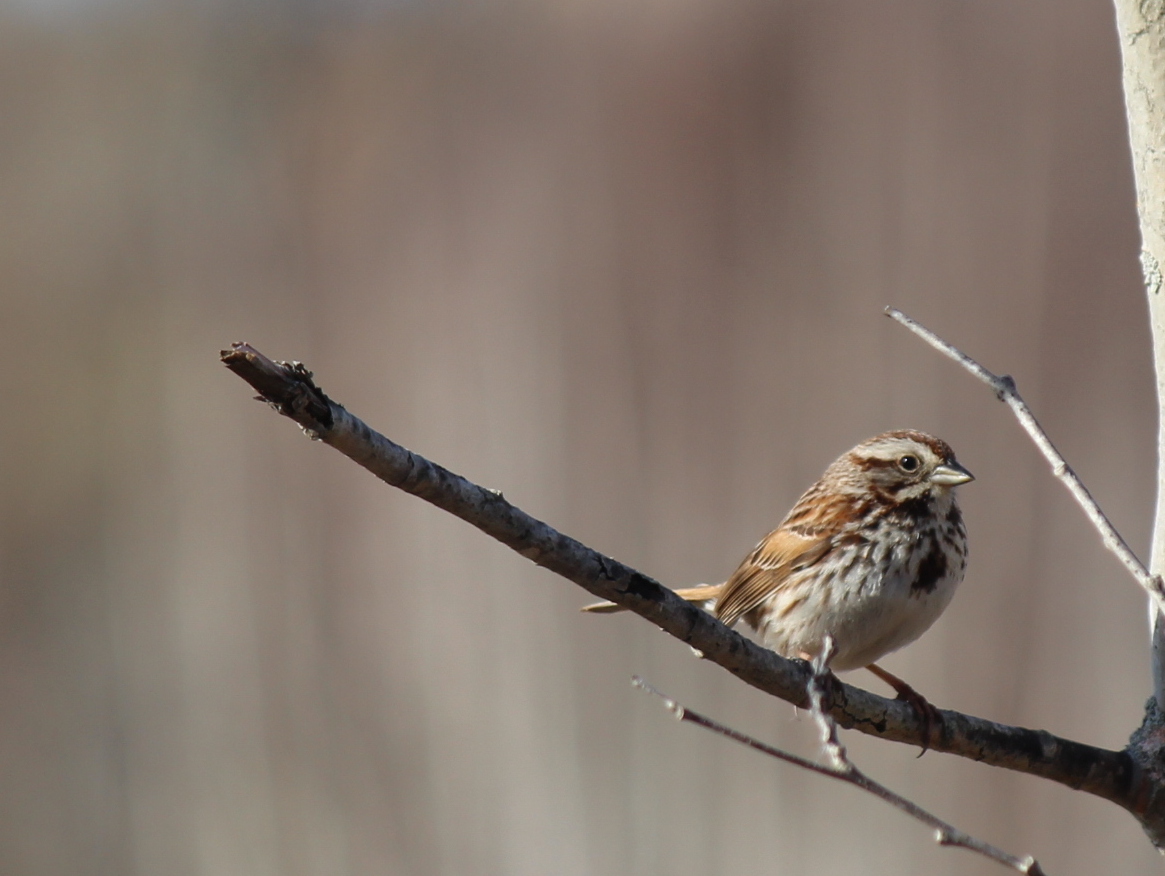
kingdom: Animalia
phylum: Chordata
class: Aves
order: Passeriformes
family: Passerellidae
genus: Melospiza
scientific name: Melospiza melodia
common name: Song sparrow
